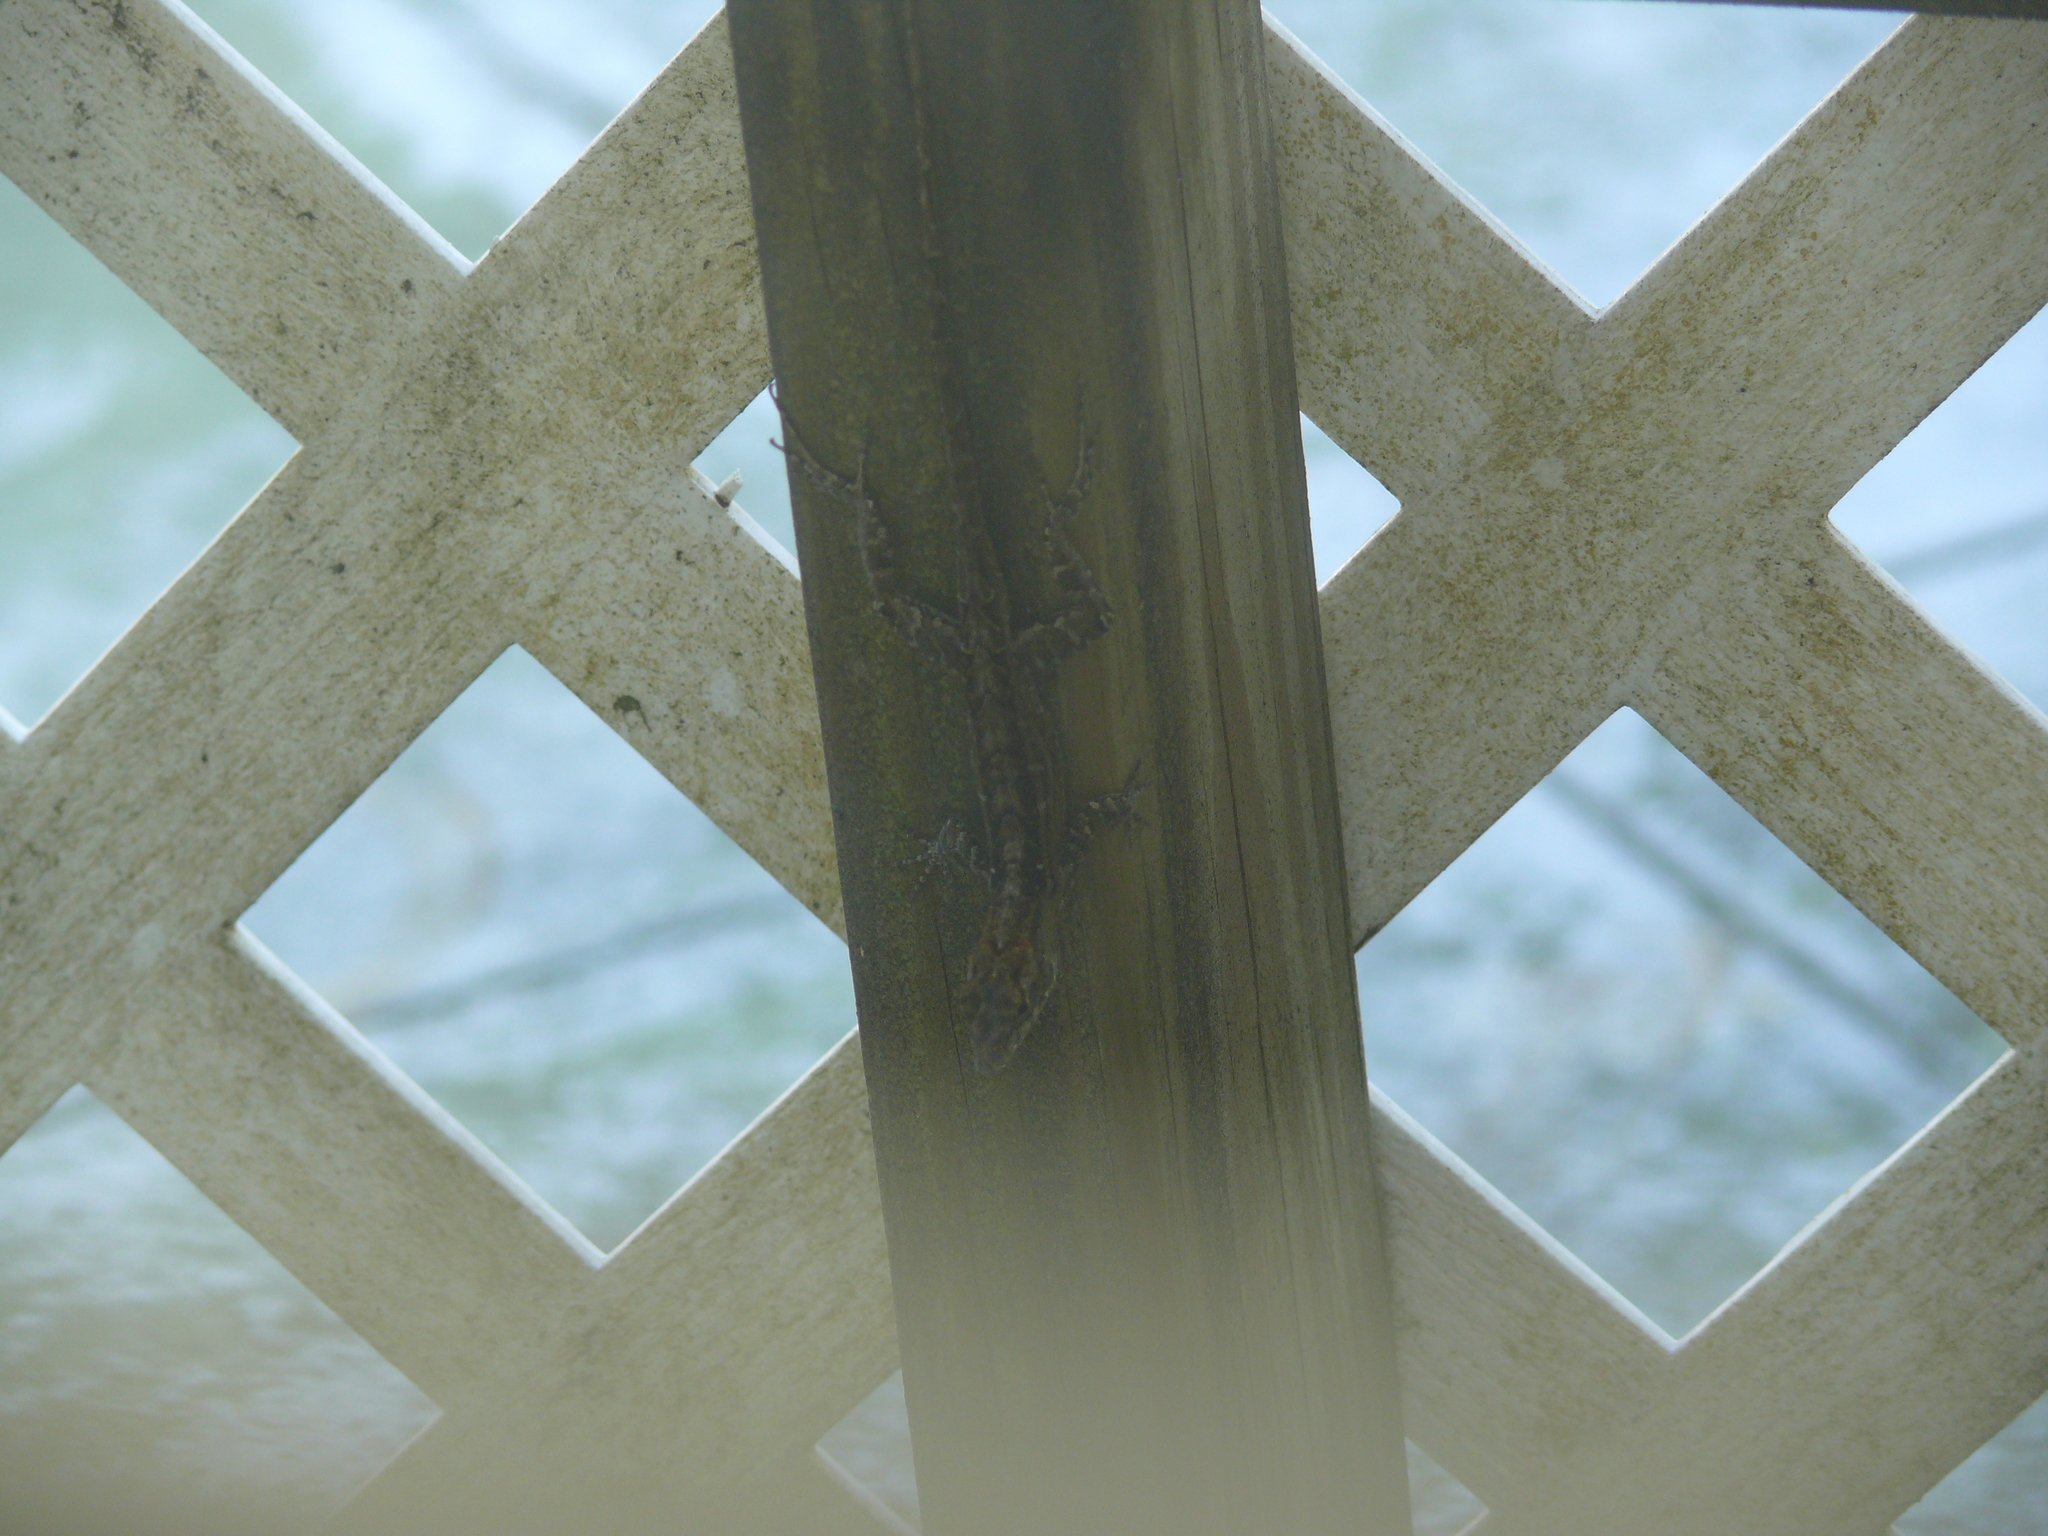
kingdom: Animalia
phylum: Chordata
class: Squamata
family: Dactyloidae
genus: Anolis
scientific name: Anolis sagrei
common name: Brown anole
